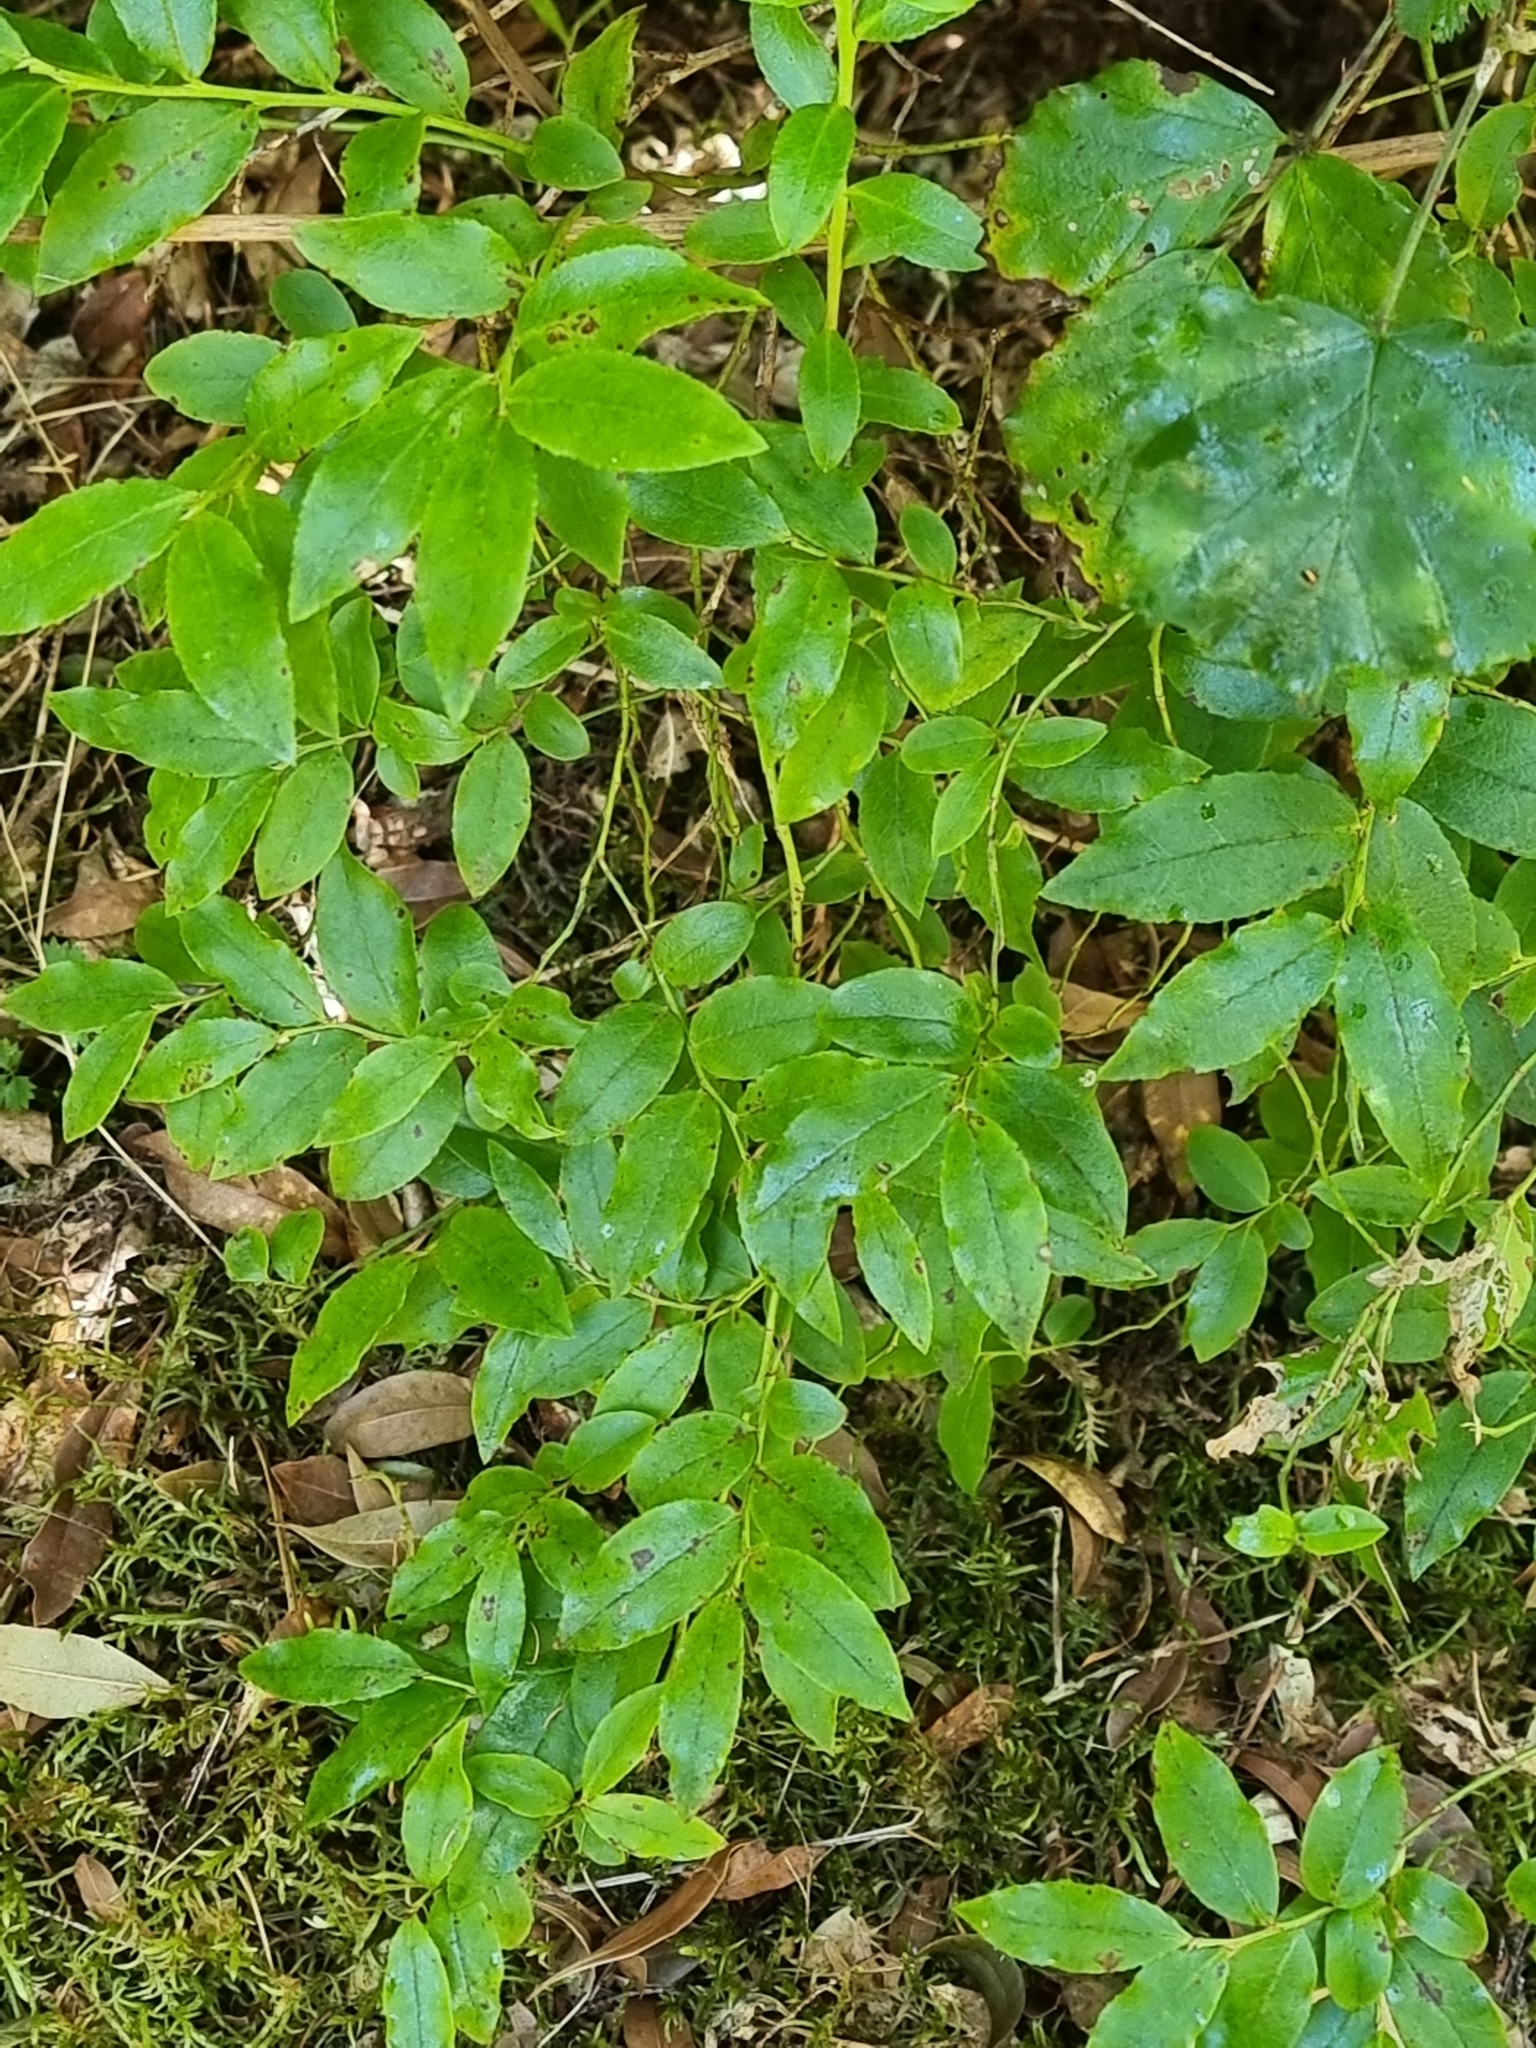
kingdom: Plantae
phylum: Tracheophyta
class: Magnoliopsida
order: Ericales
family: Ericaceae
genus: Vaccinium
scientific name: Vaccinium padifolium
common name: Madeiran blueberry
